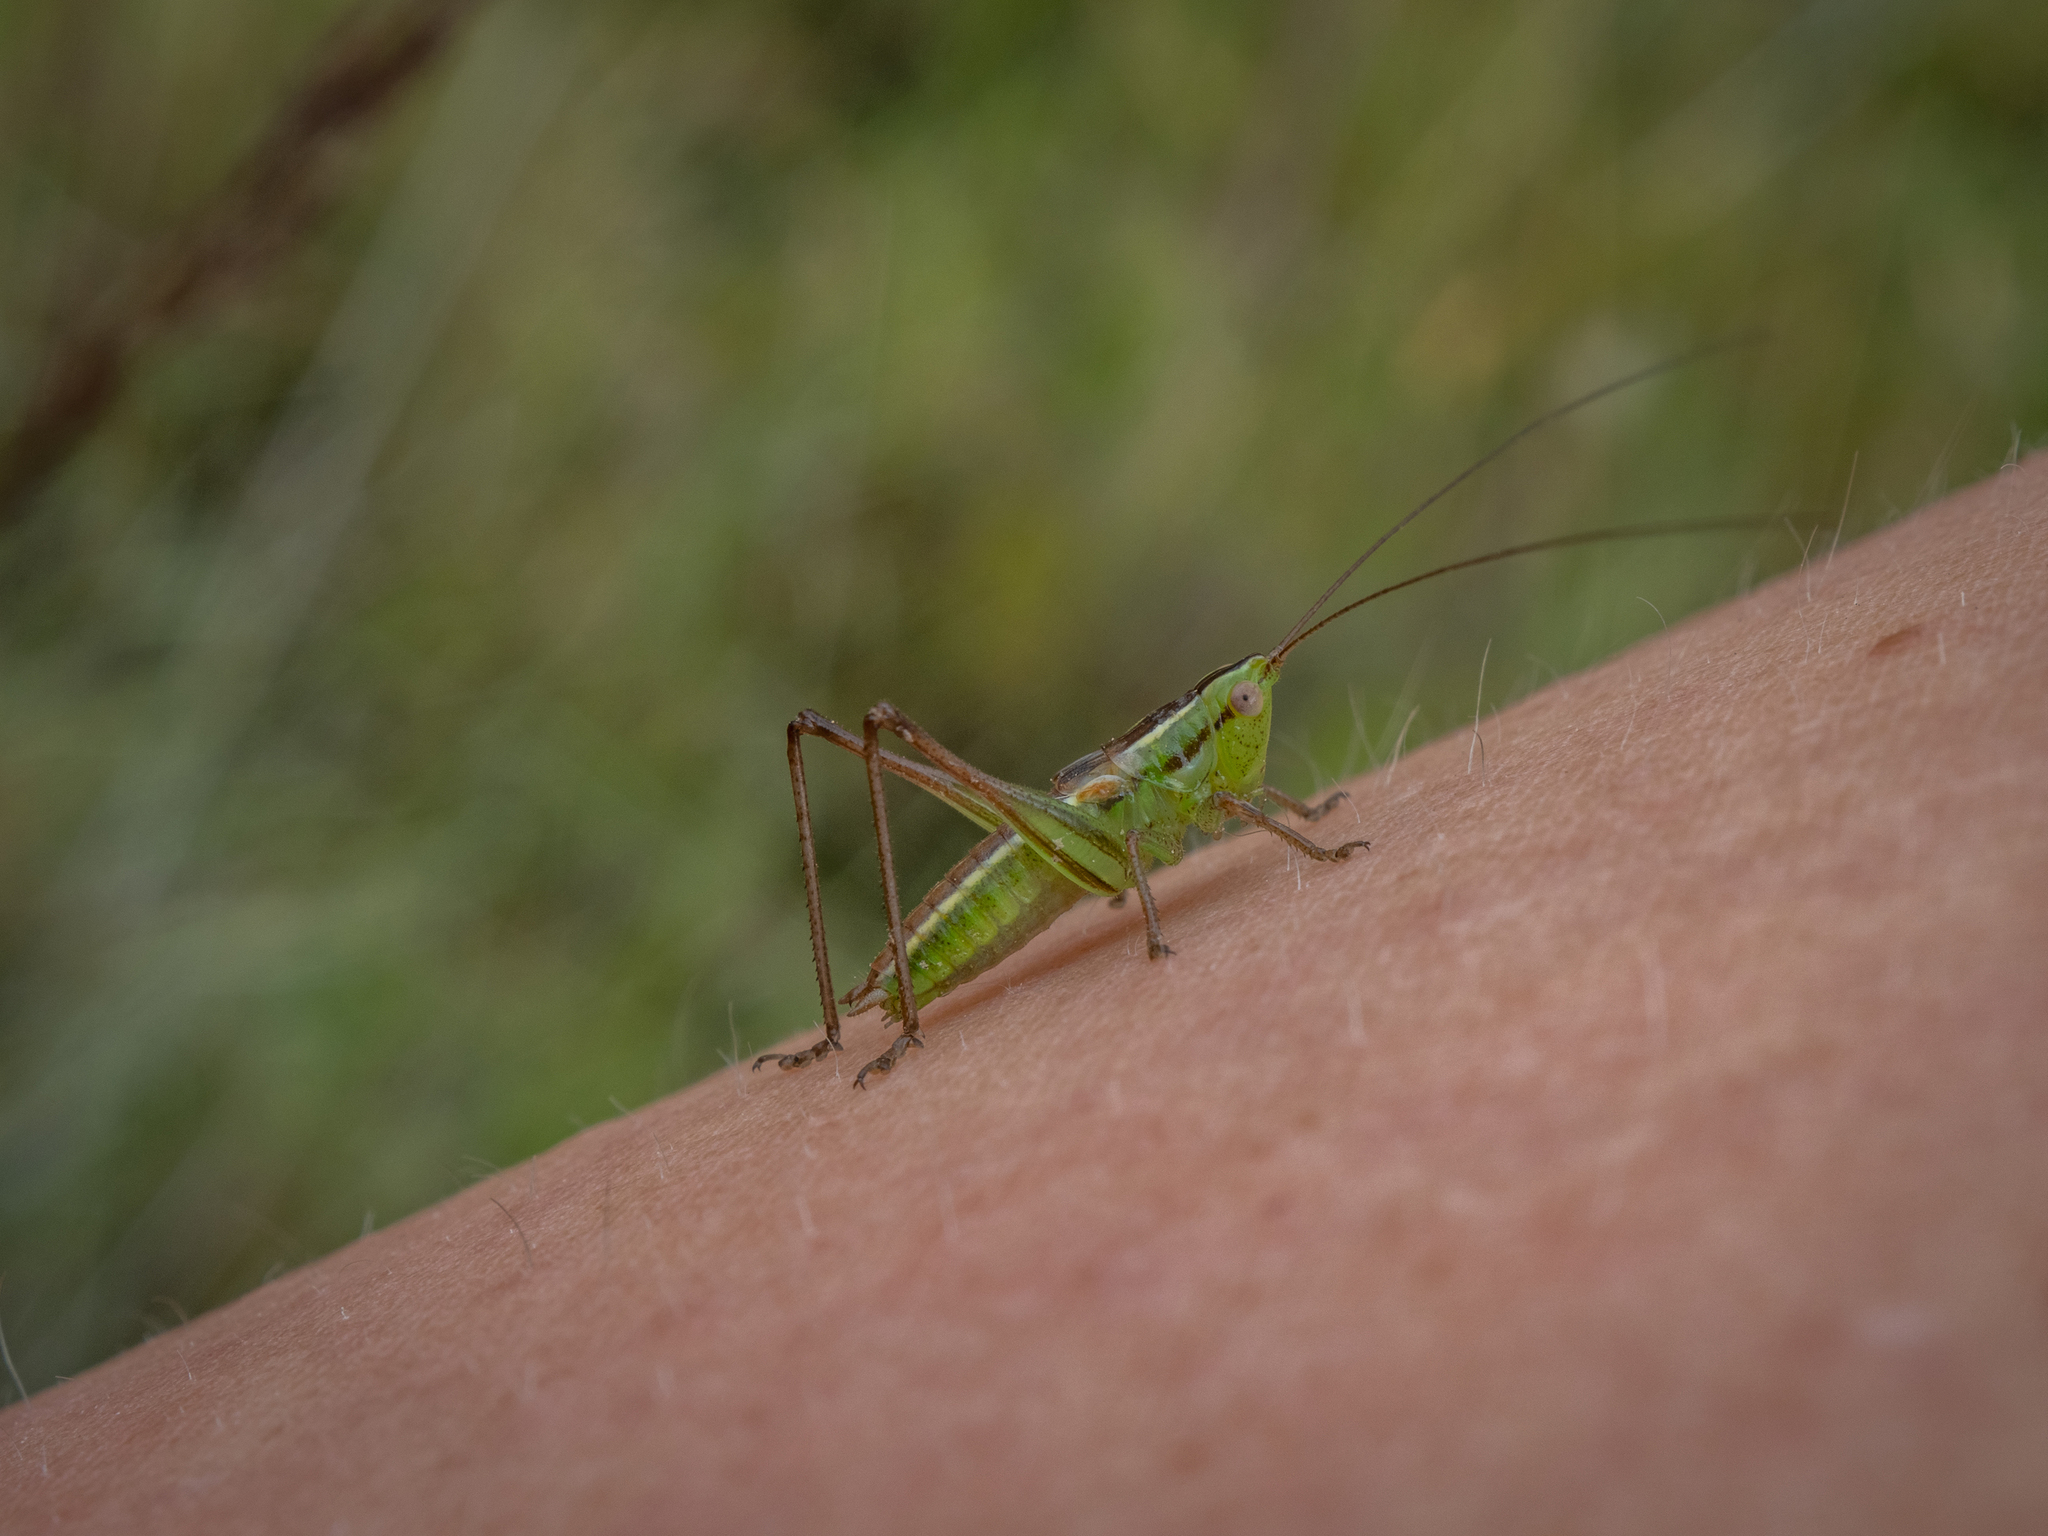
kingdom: Animalia
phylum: Arthropoda
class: Insecta
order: Orthoptera
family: Tettigoniidae
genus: Conocephalus
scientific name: Conocephalus bilineatus
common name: Small meadow katydid
